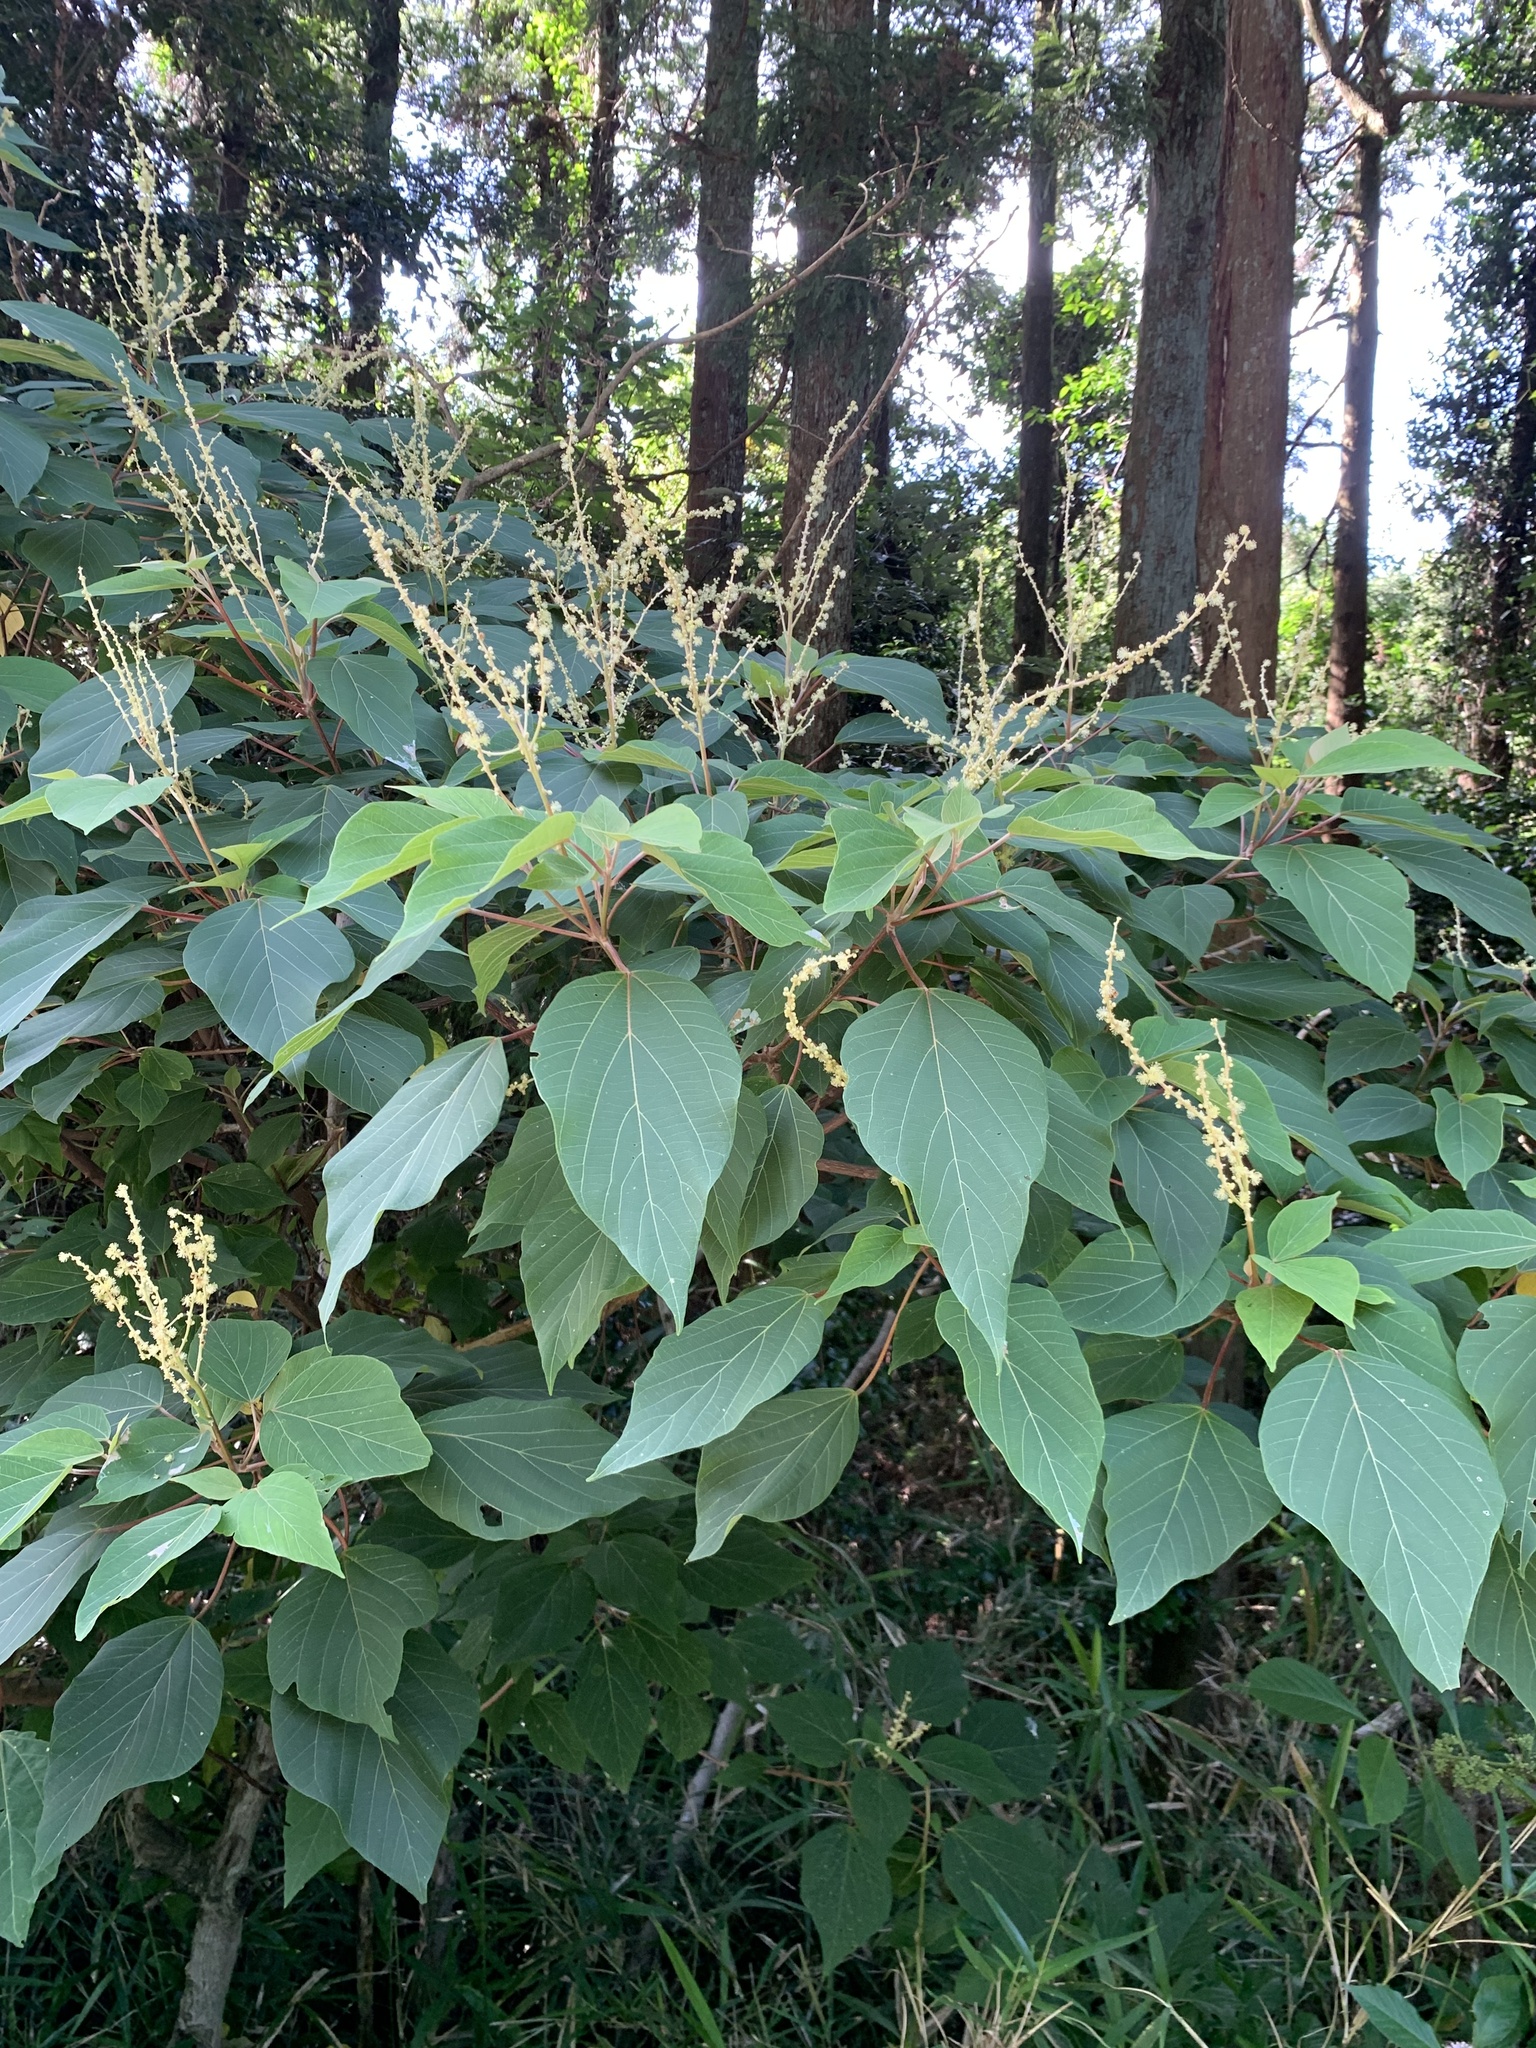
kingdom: Plantae
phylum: Tracheophyta
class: Magnoliopsida
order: Malpighiales
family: Euphorbiaceae
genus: Mallotus
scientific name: Mallotus japonicus
